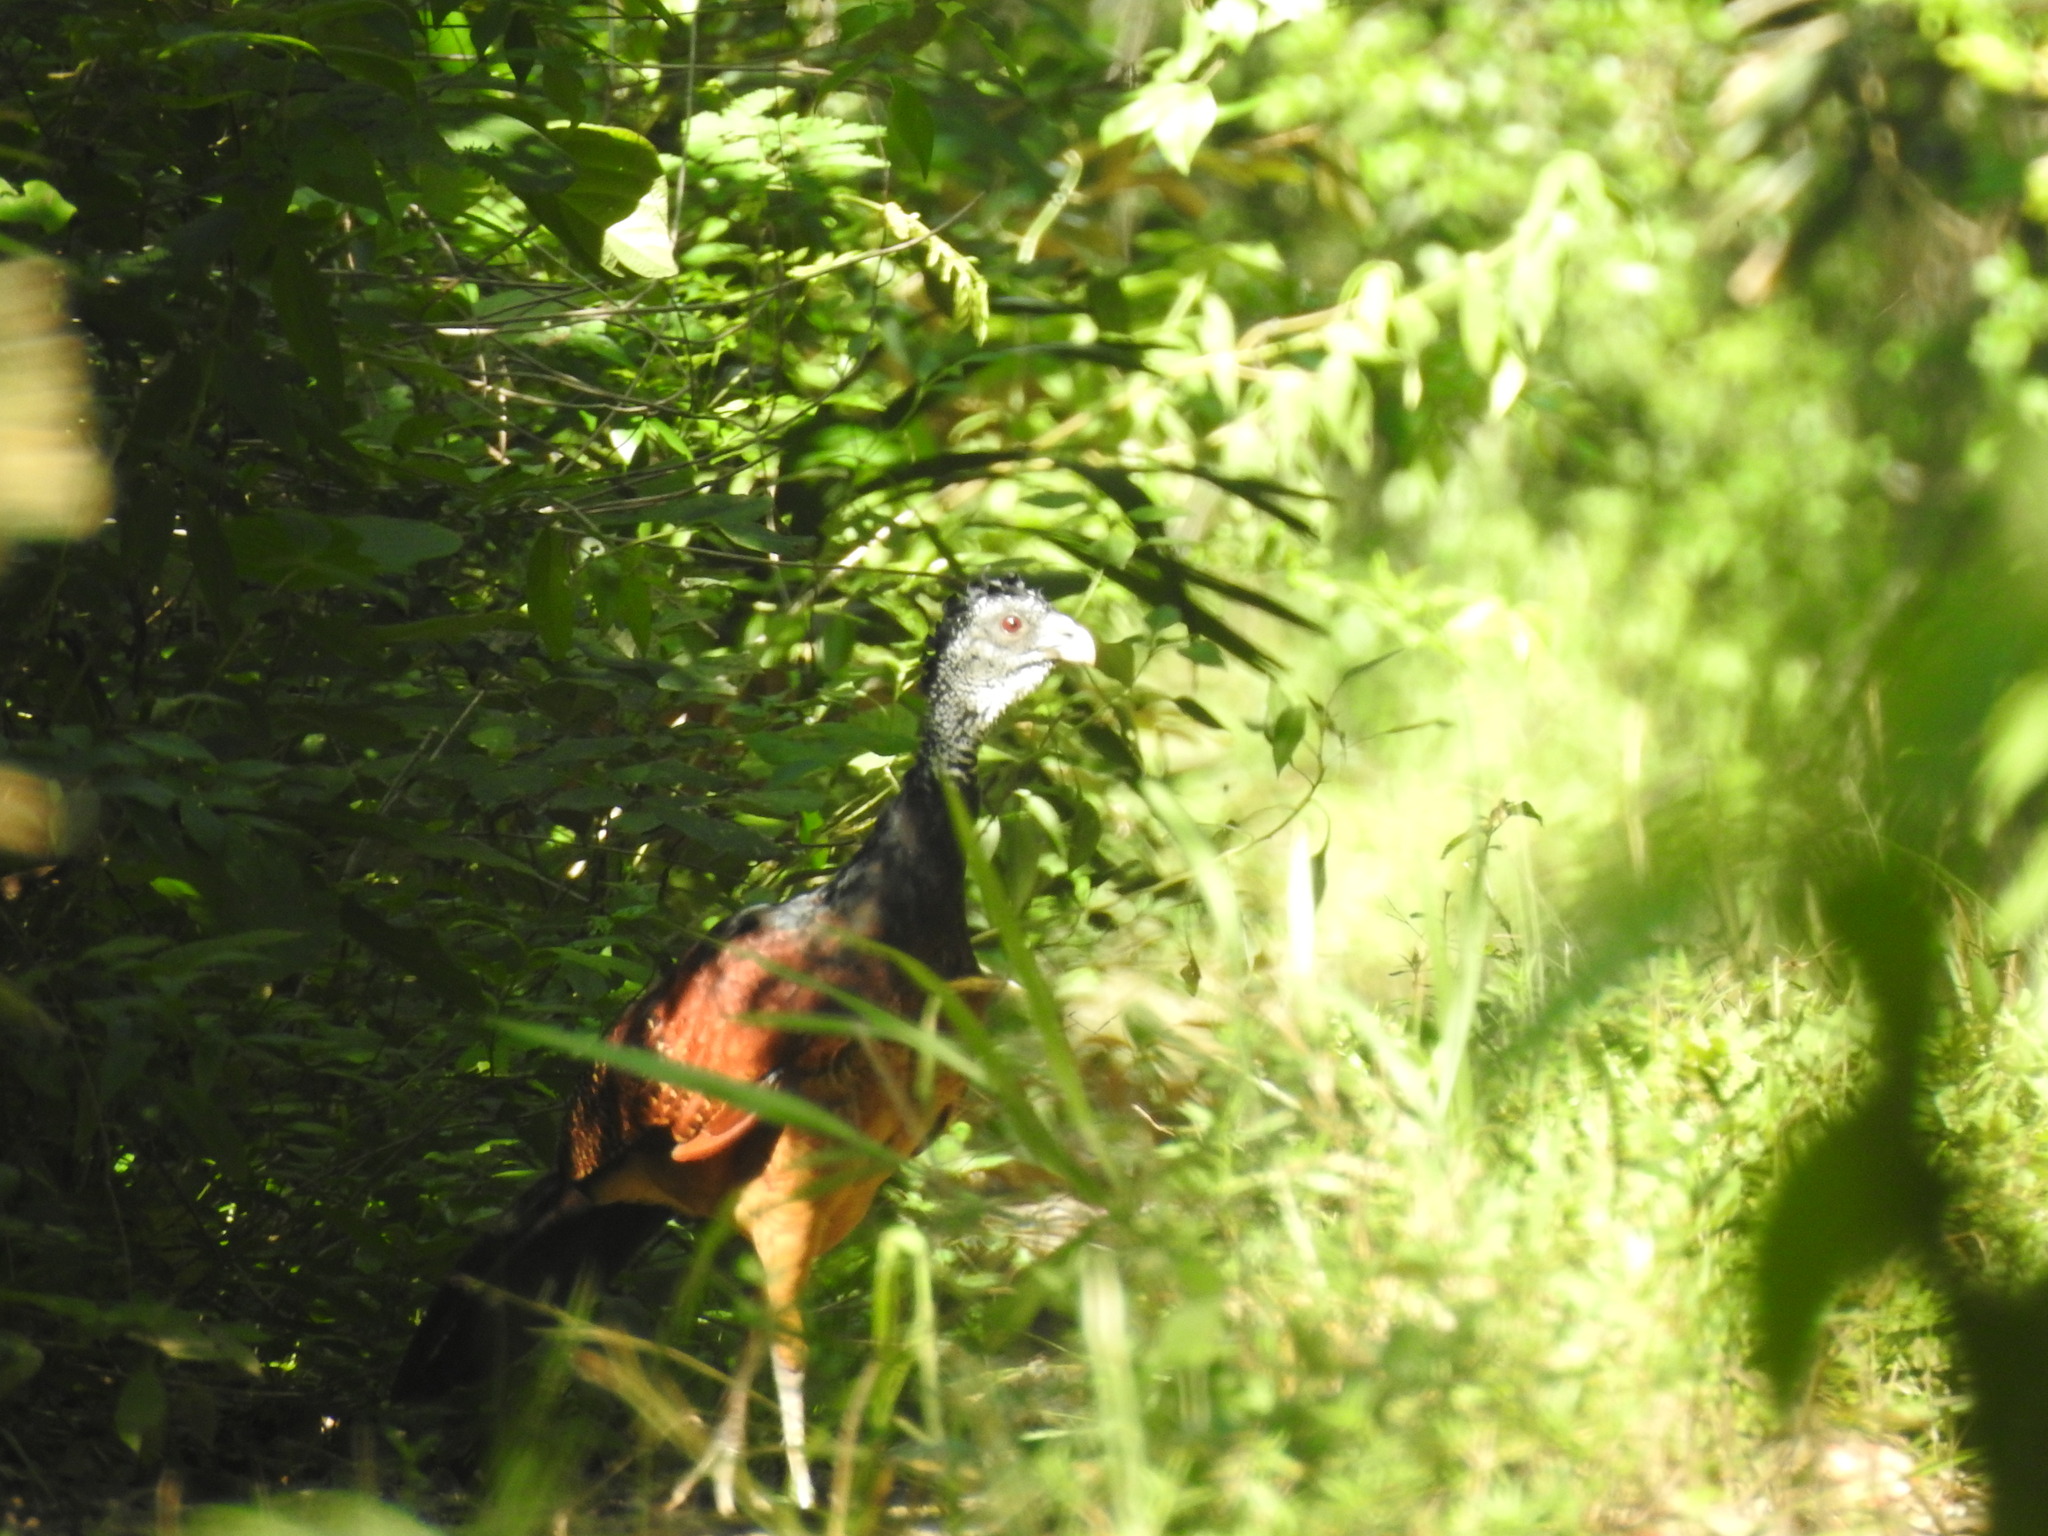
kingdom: Animalia
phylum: Chordata
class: Aves
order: Galliformes
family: Cracidae
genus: Crax
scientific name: Crax rubra
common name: Great curassow
